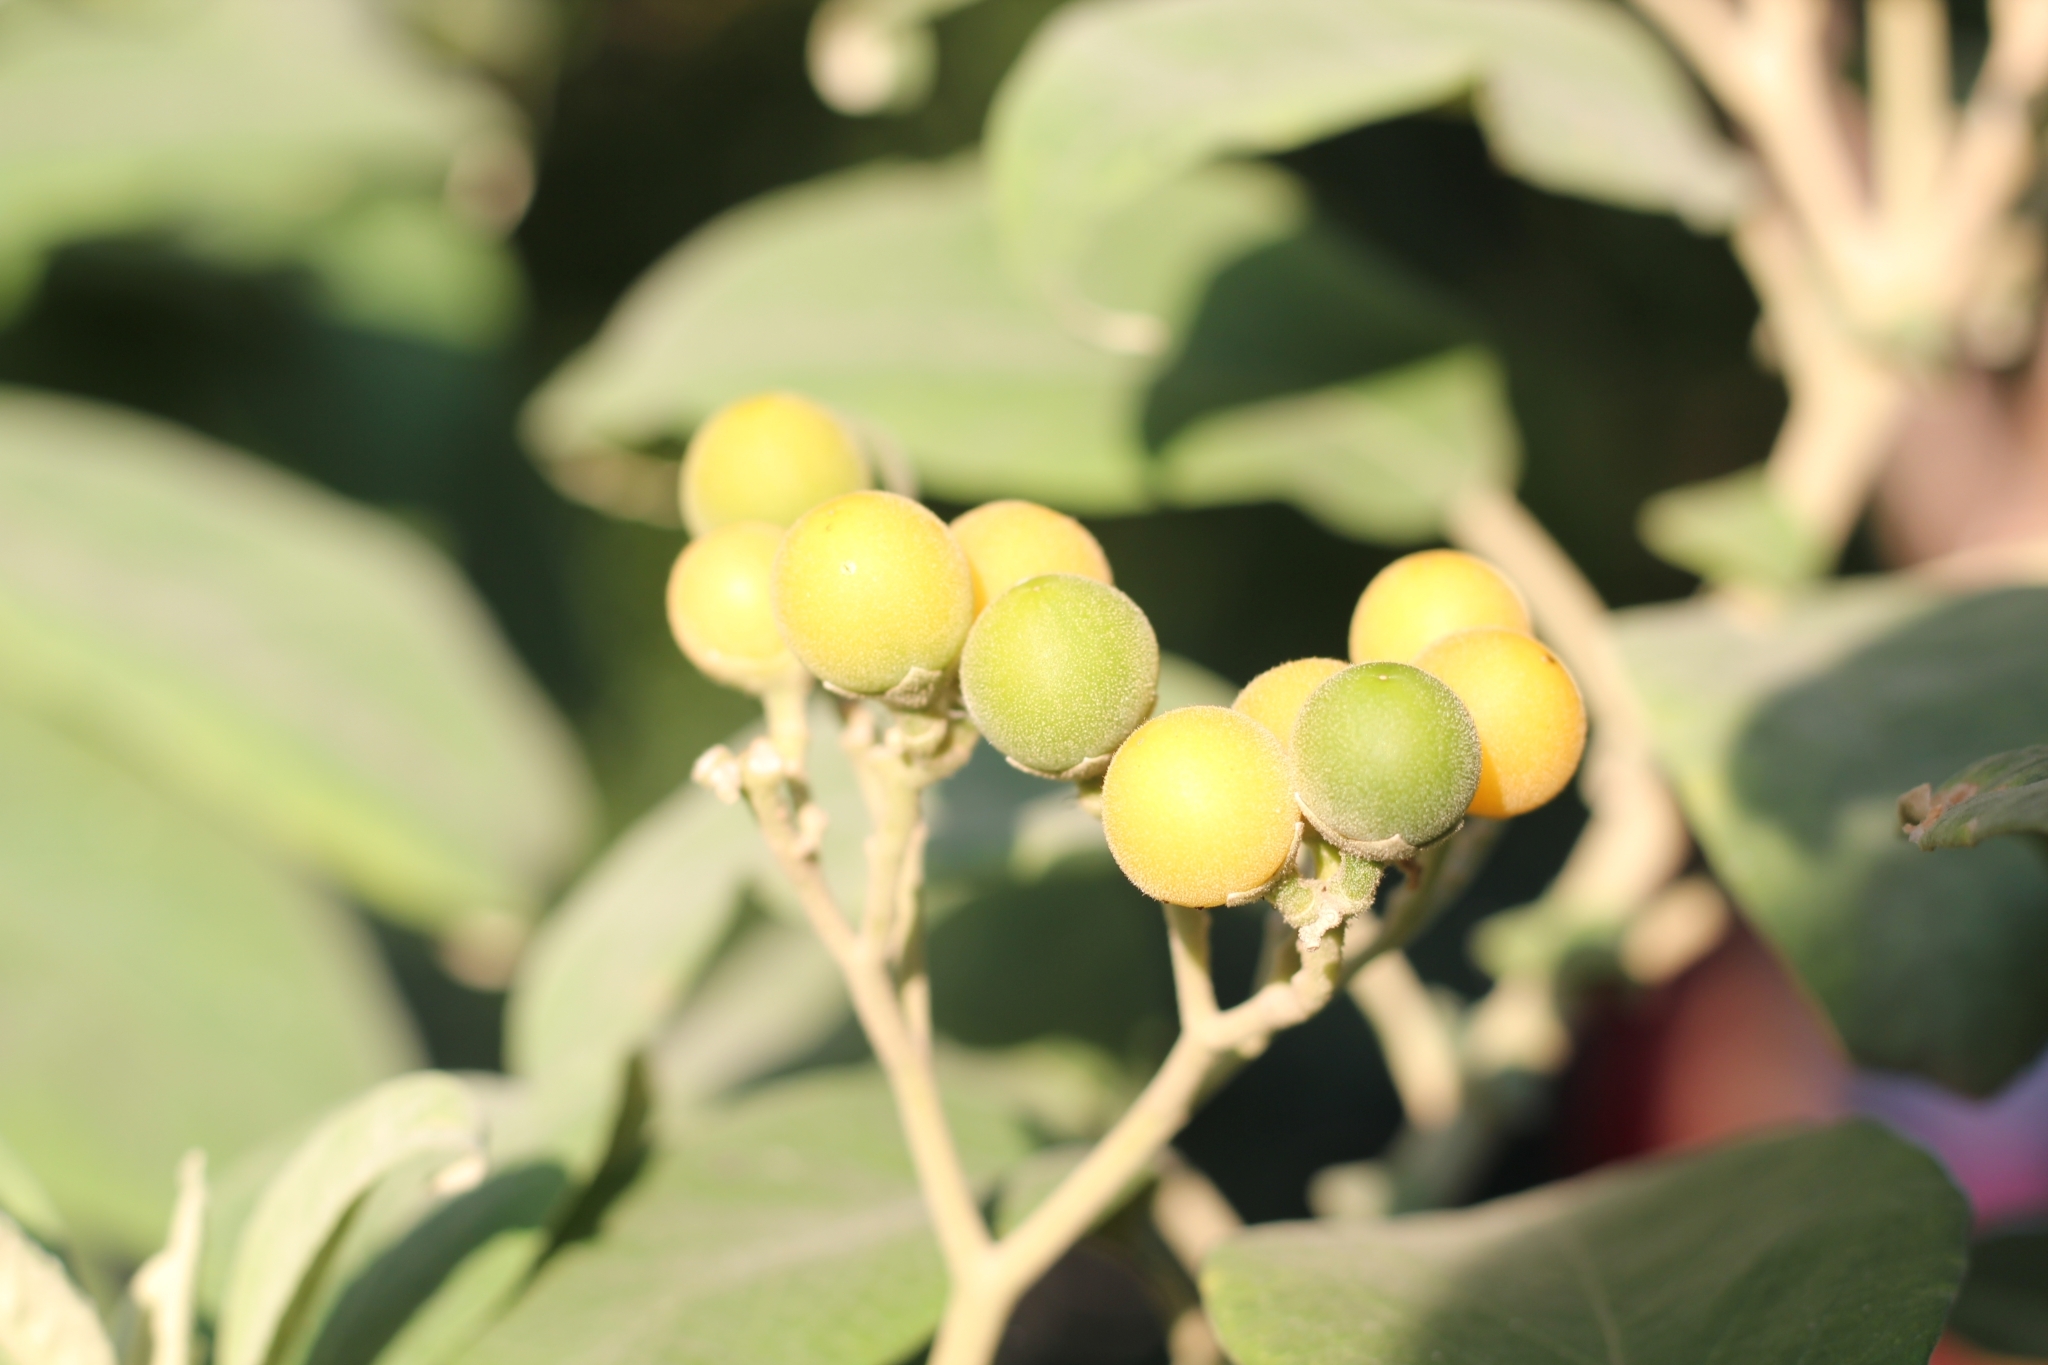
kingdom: Plantae
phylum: Tracheophyta
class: Magnoliopsida
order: Solanales
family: Solanaceae
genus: Solanum
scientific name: Solanum granulosoleprosum
